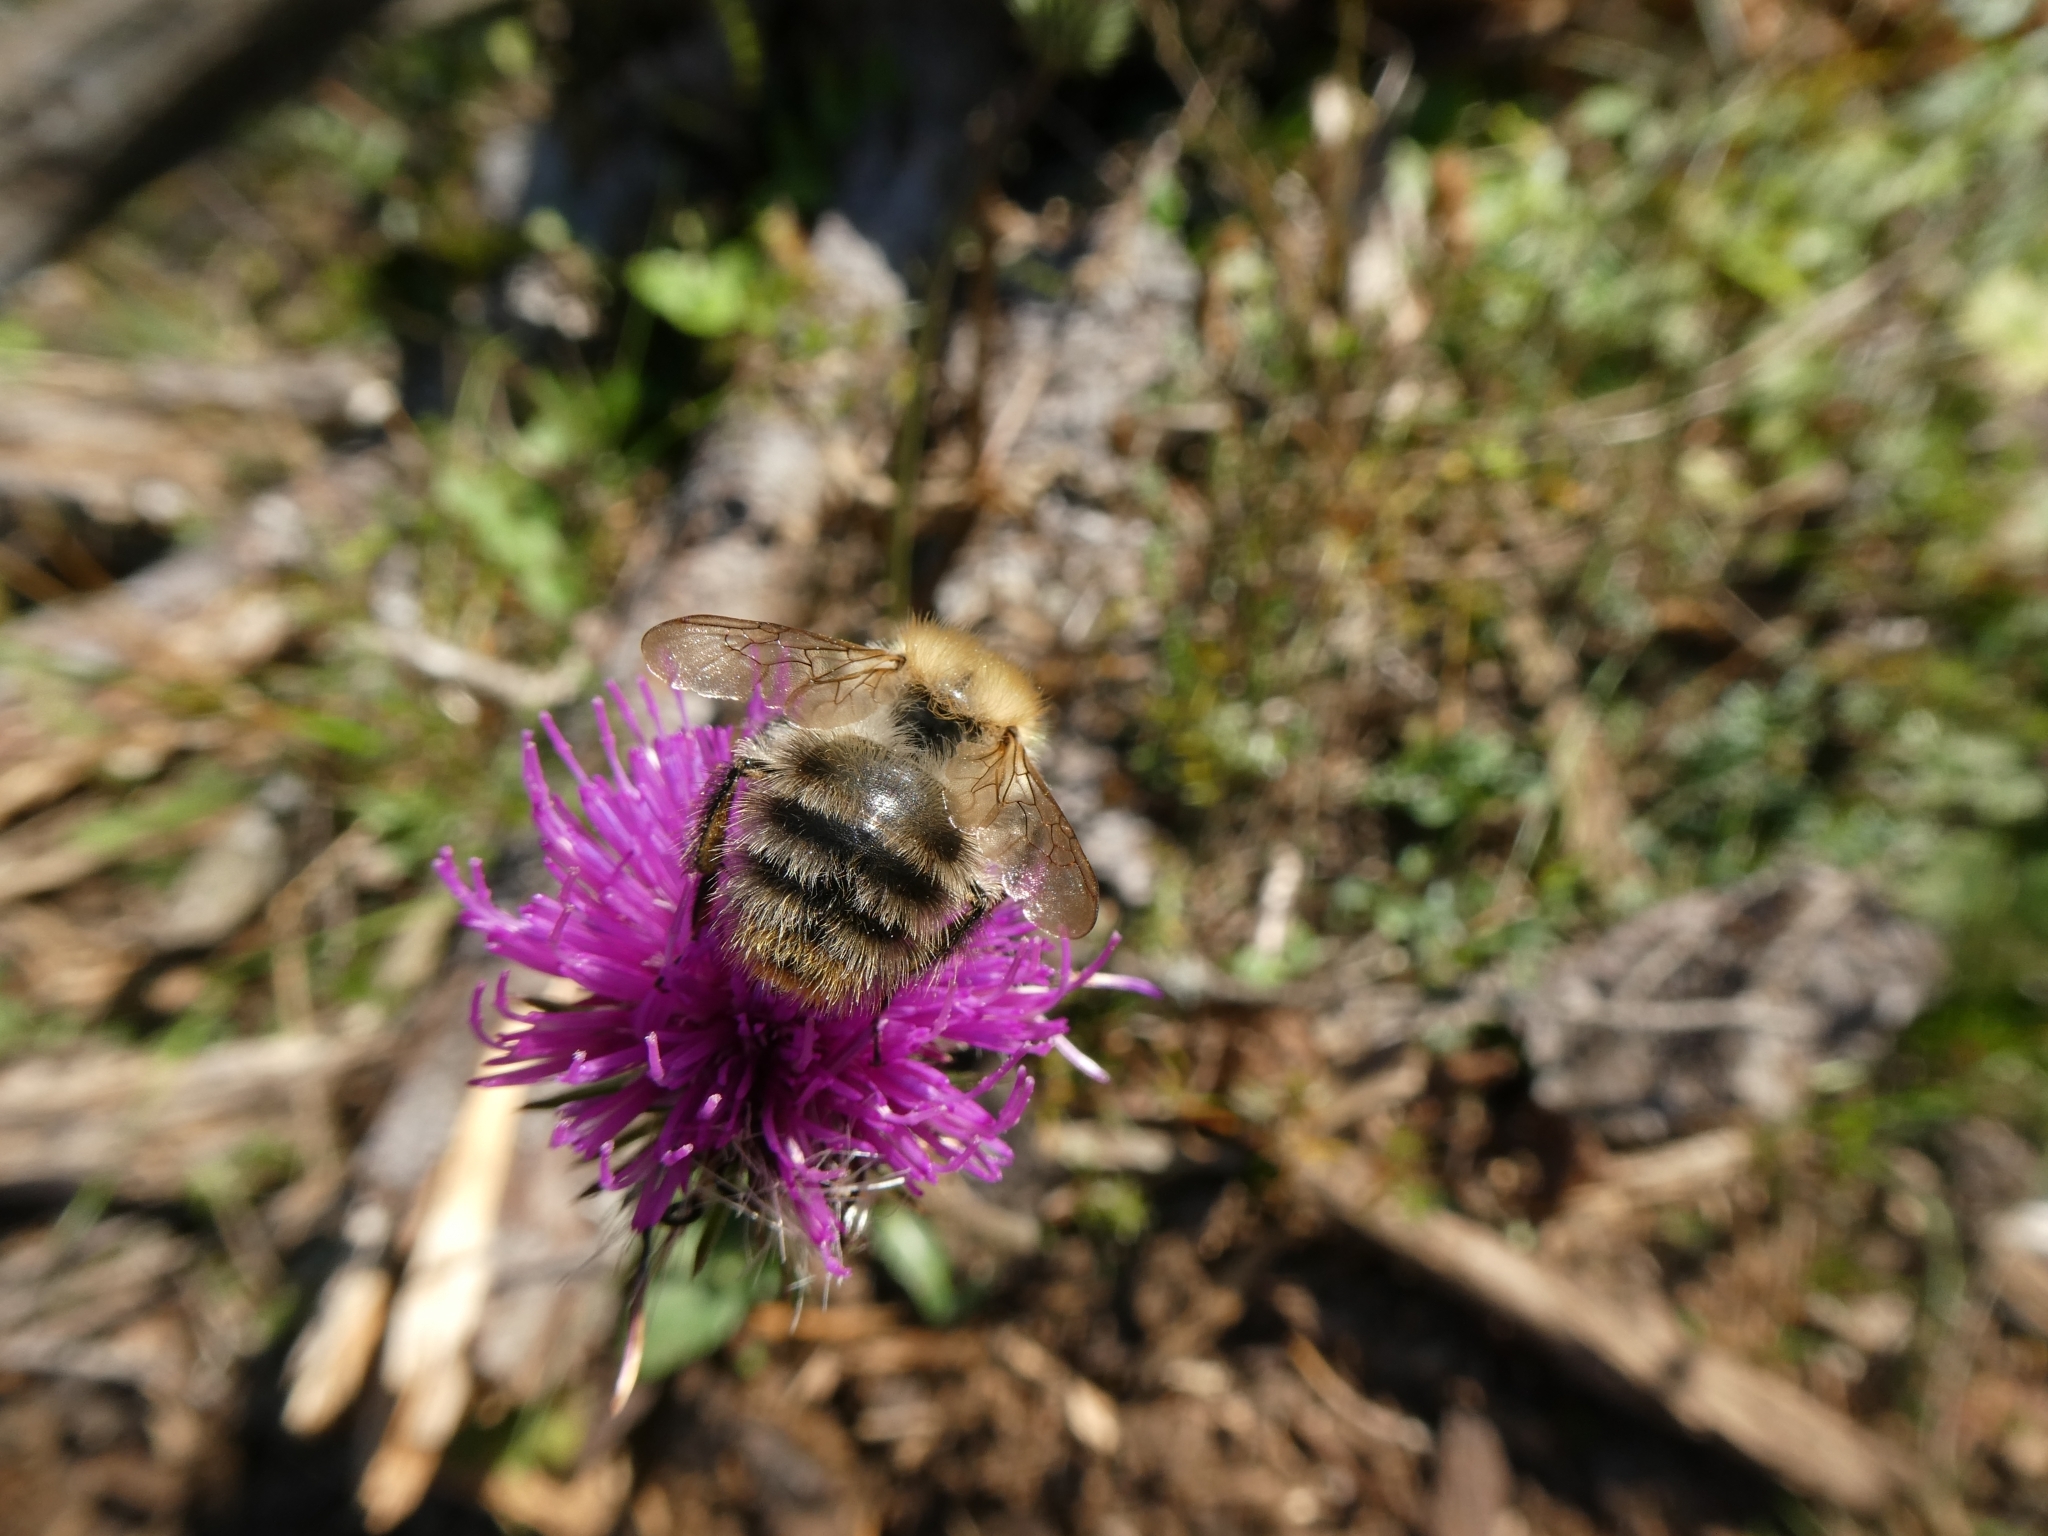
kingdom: Animalia
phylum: Arthropoda
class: Insecta
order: Hymenoptera
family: Apidae
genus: Bombus
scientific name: Bombus pascuorum
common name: Common carder bee
